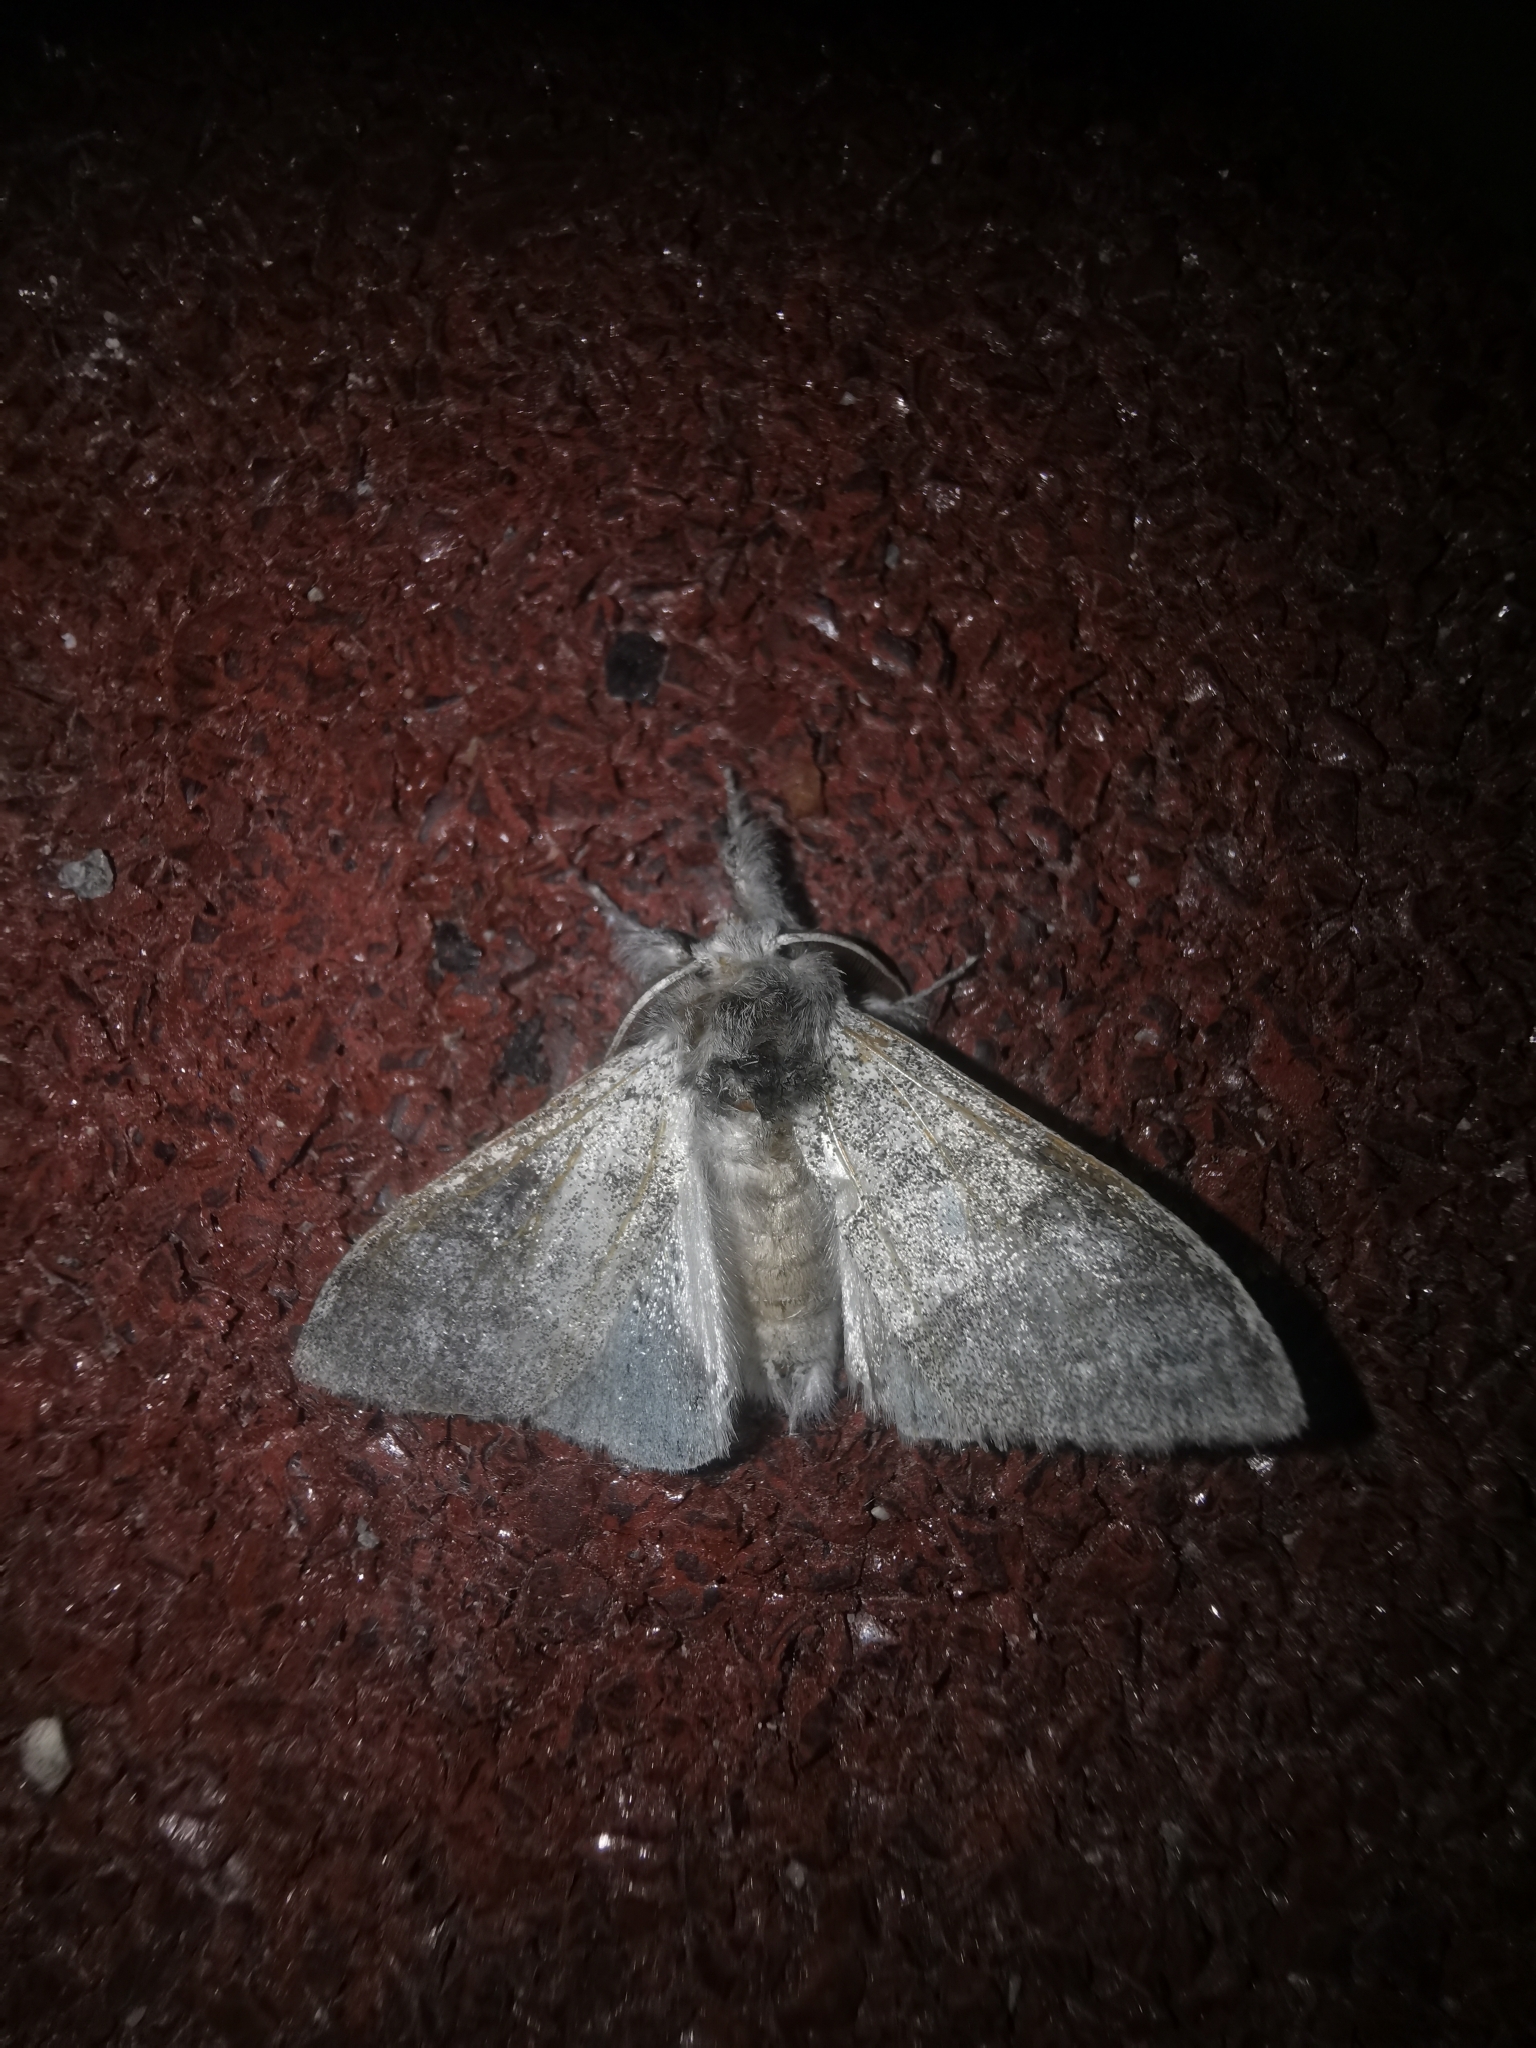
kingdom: Animalia
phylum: Arthropoda
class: Insecta
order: Lepidoptera
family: Erebidae
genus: Calliteara
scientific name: Calliteara pudibunda
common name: Pale tussock
